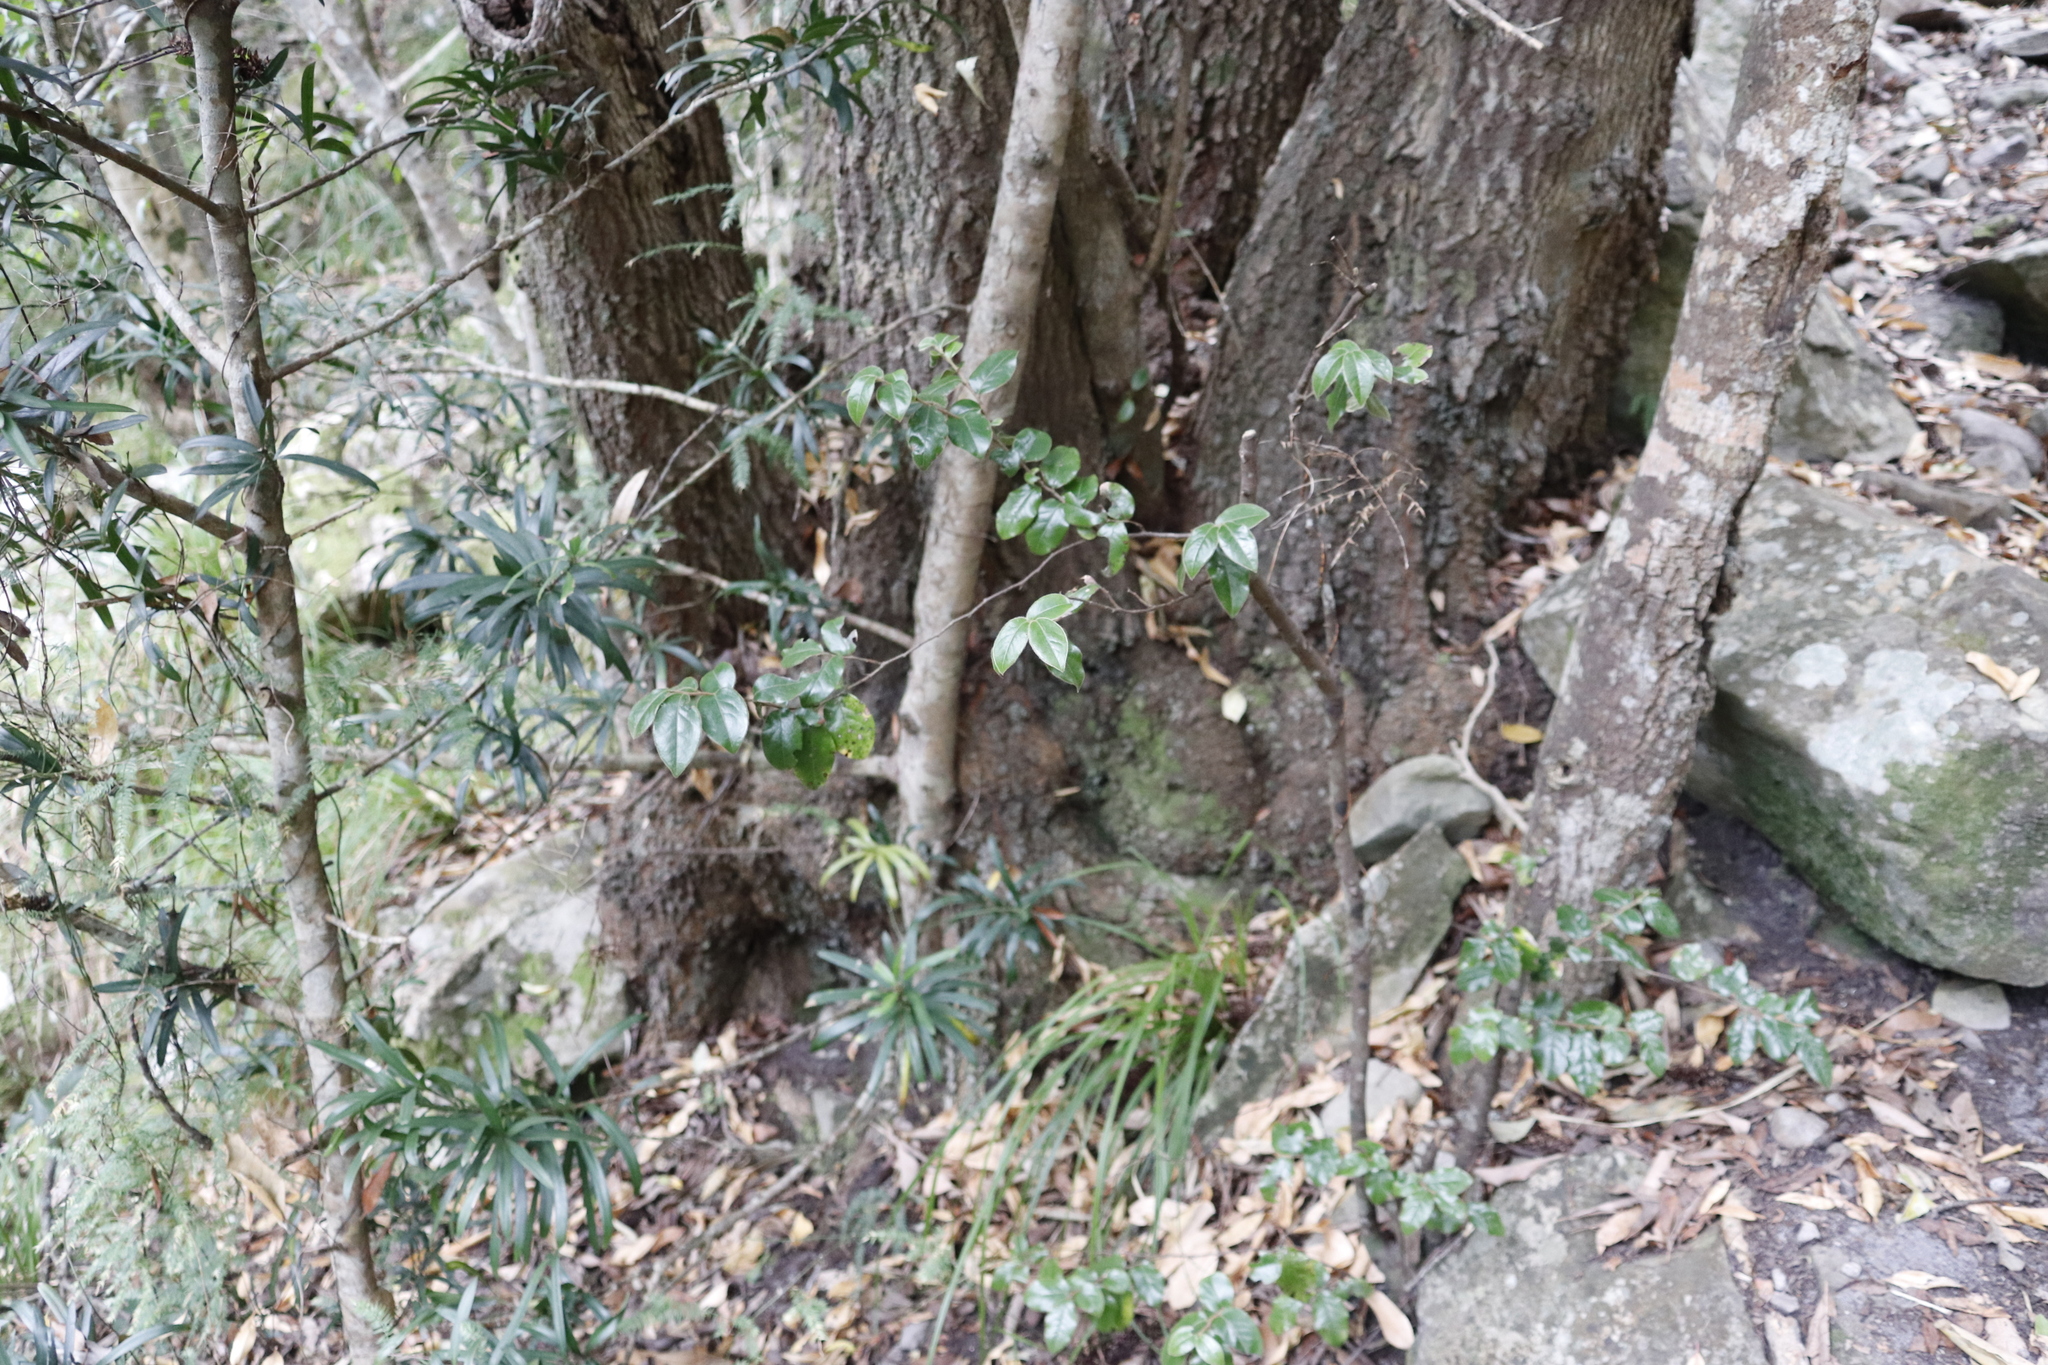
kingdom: Plantae
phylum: Tracheophyta
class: Magnoliopsida
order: Ericales
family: Ebenaceae
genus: Diospyros
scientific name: Diospyros whyteana
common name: Bladder-nut
